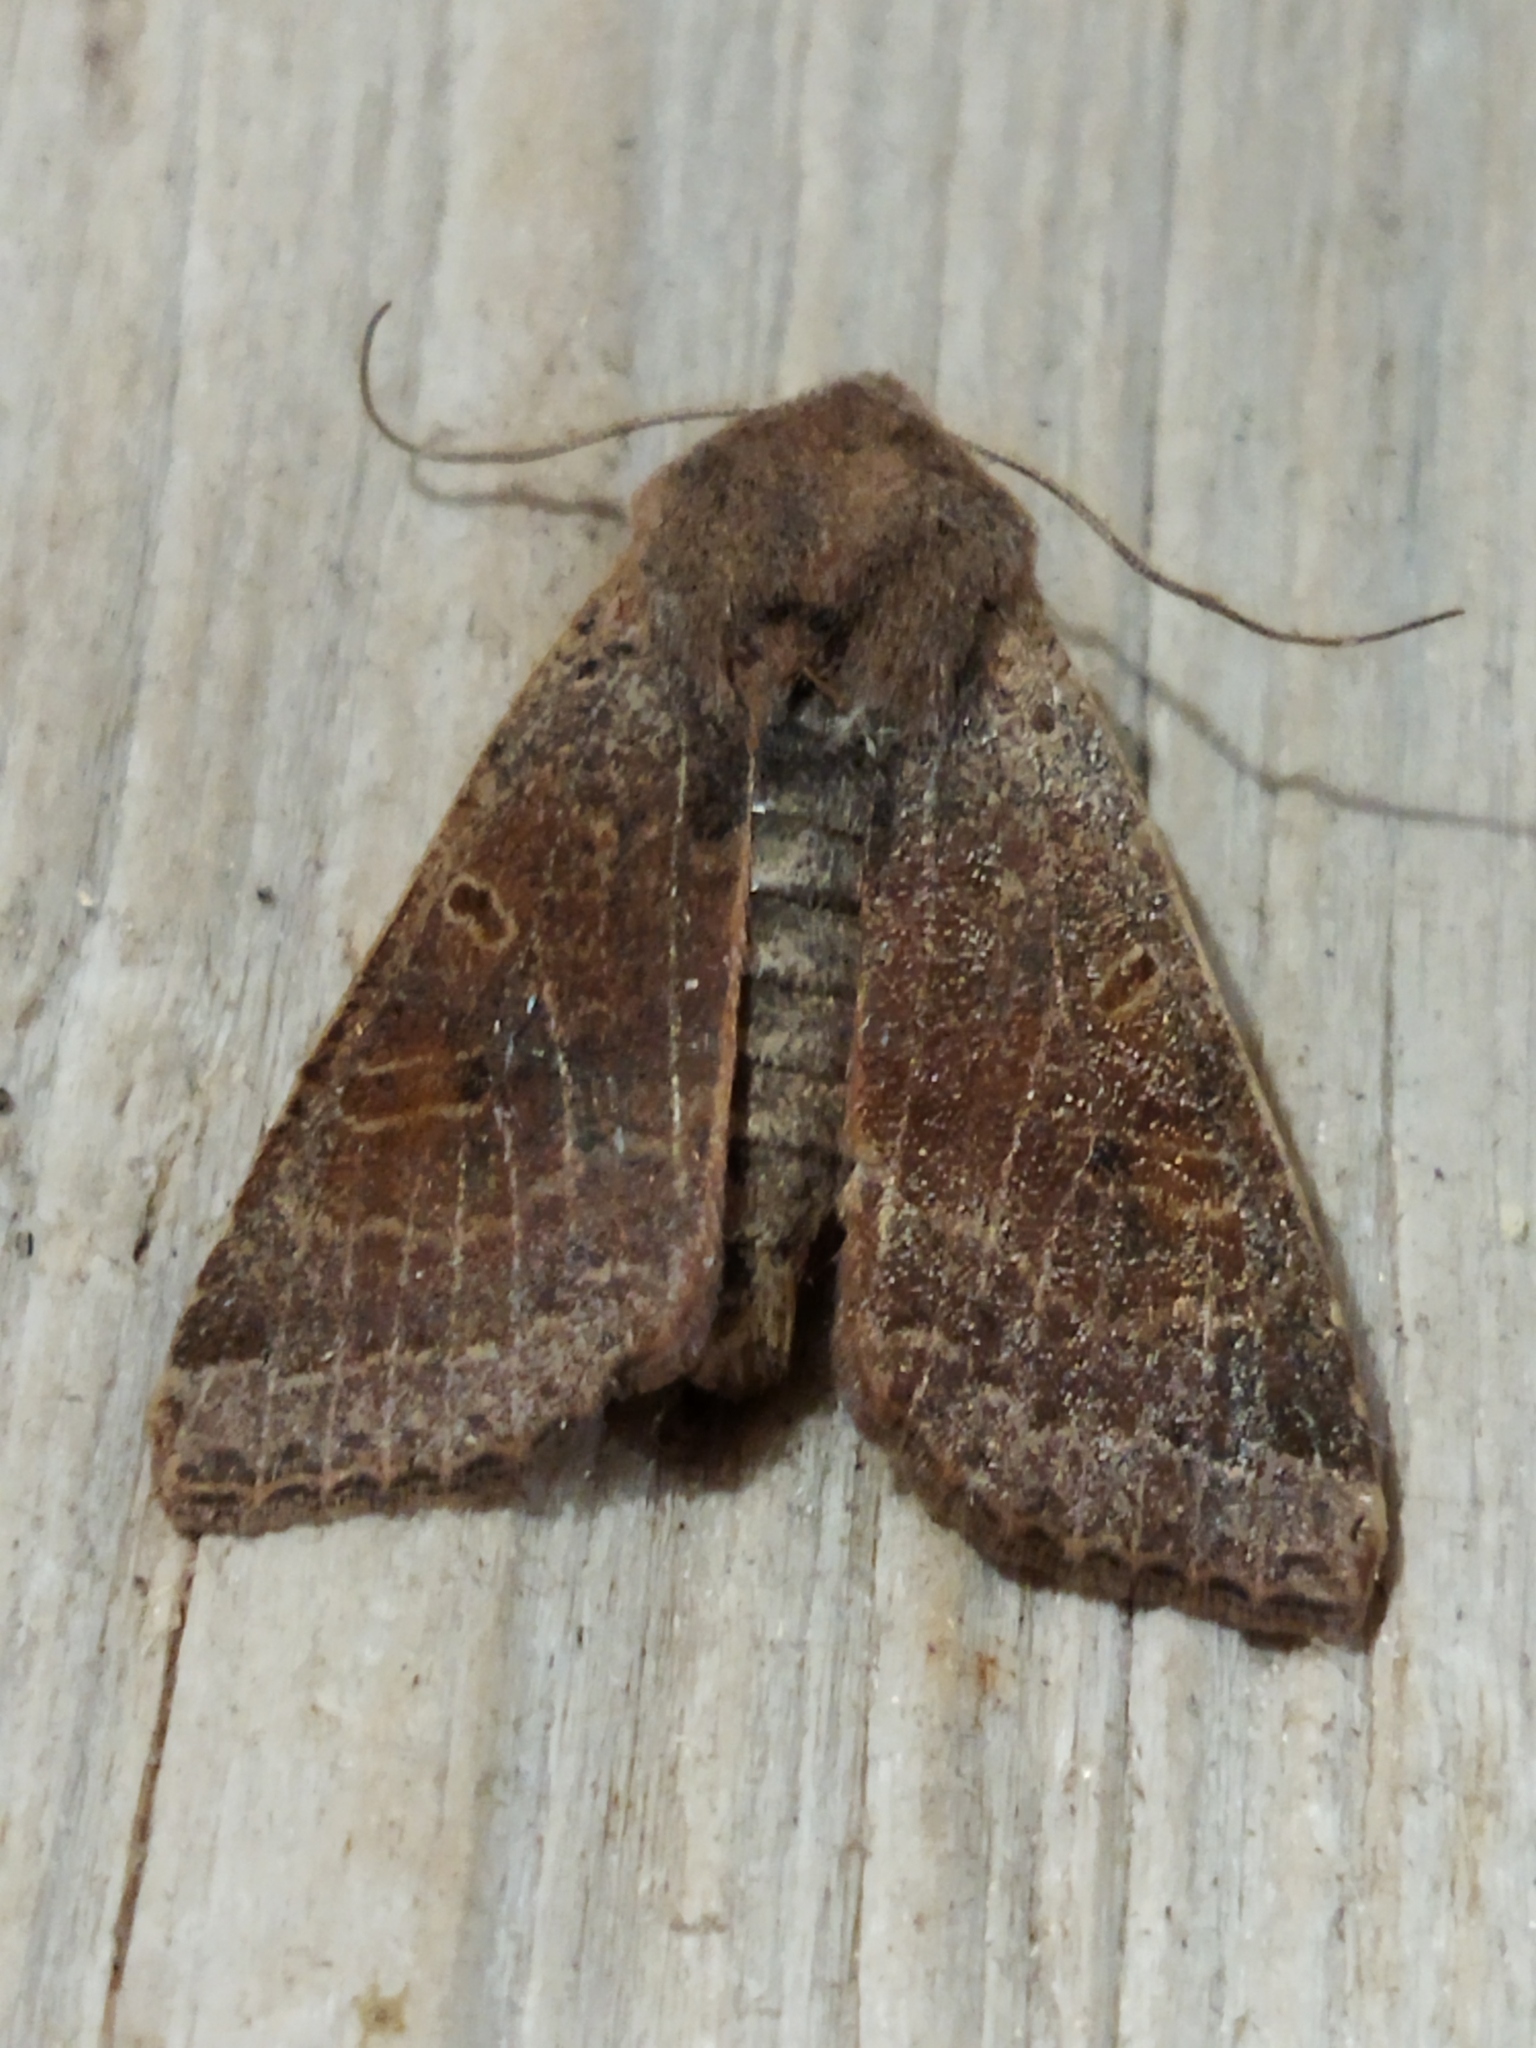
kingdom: Animalia
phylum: Arthropoda
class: Insecta
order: Lepidoptera
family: Noctuidae
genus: Agrochola
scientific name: Agrochola lychnidis
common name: Beaded chestnut
